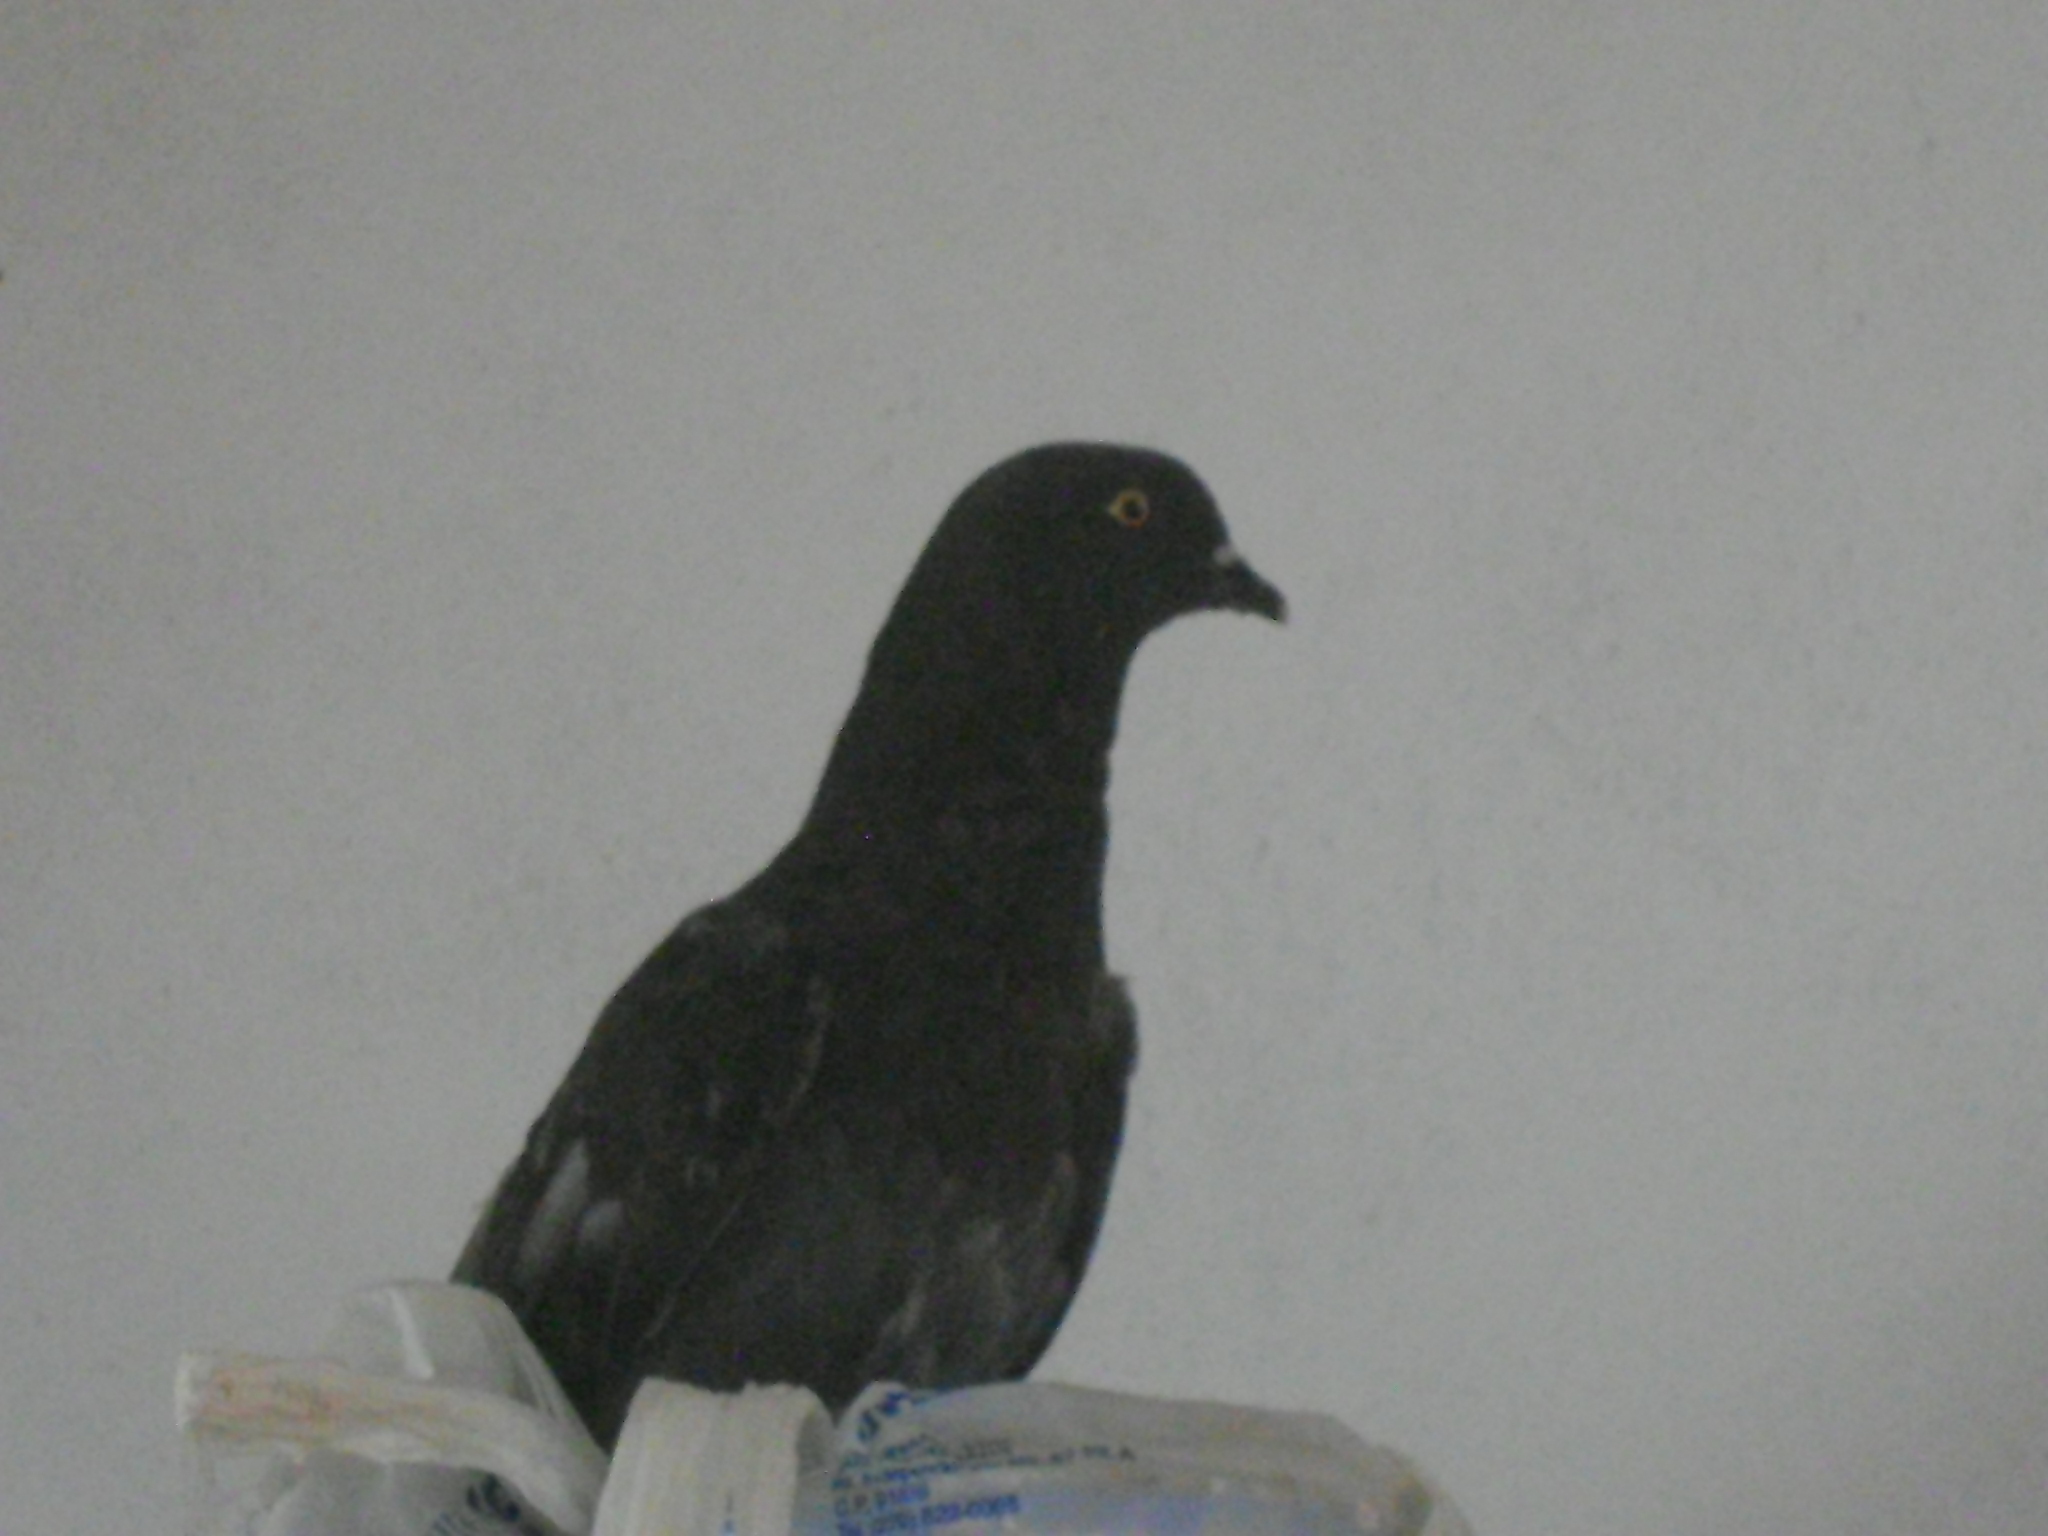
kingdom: Animalia
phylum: Chordata
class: Aves
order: Columbiformes
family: Columbidae
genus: Columba
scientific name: Columba livia
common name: Rock pigeon
